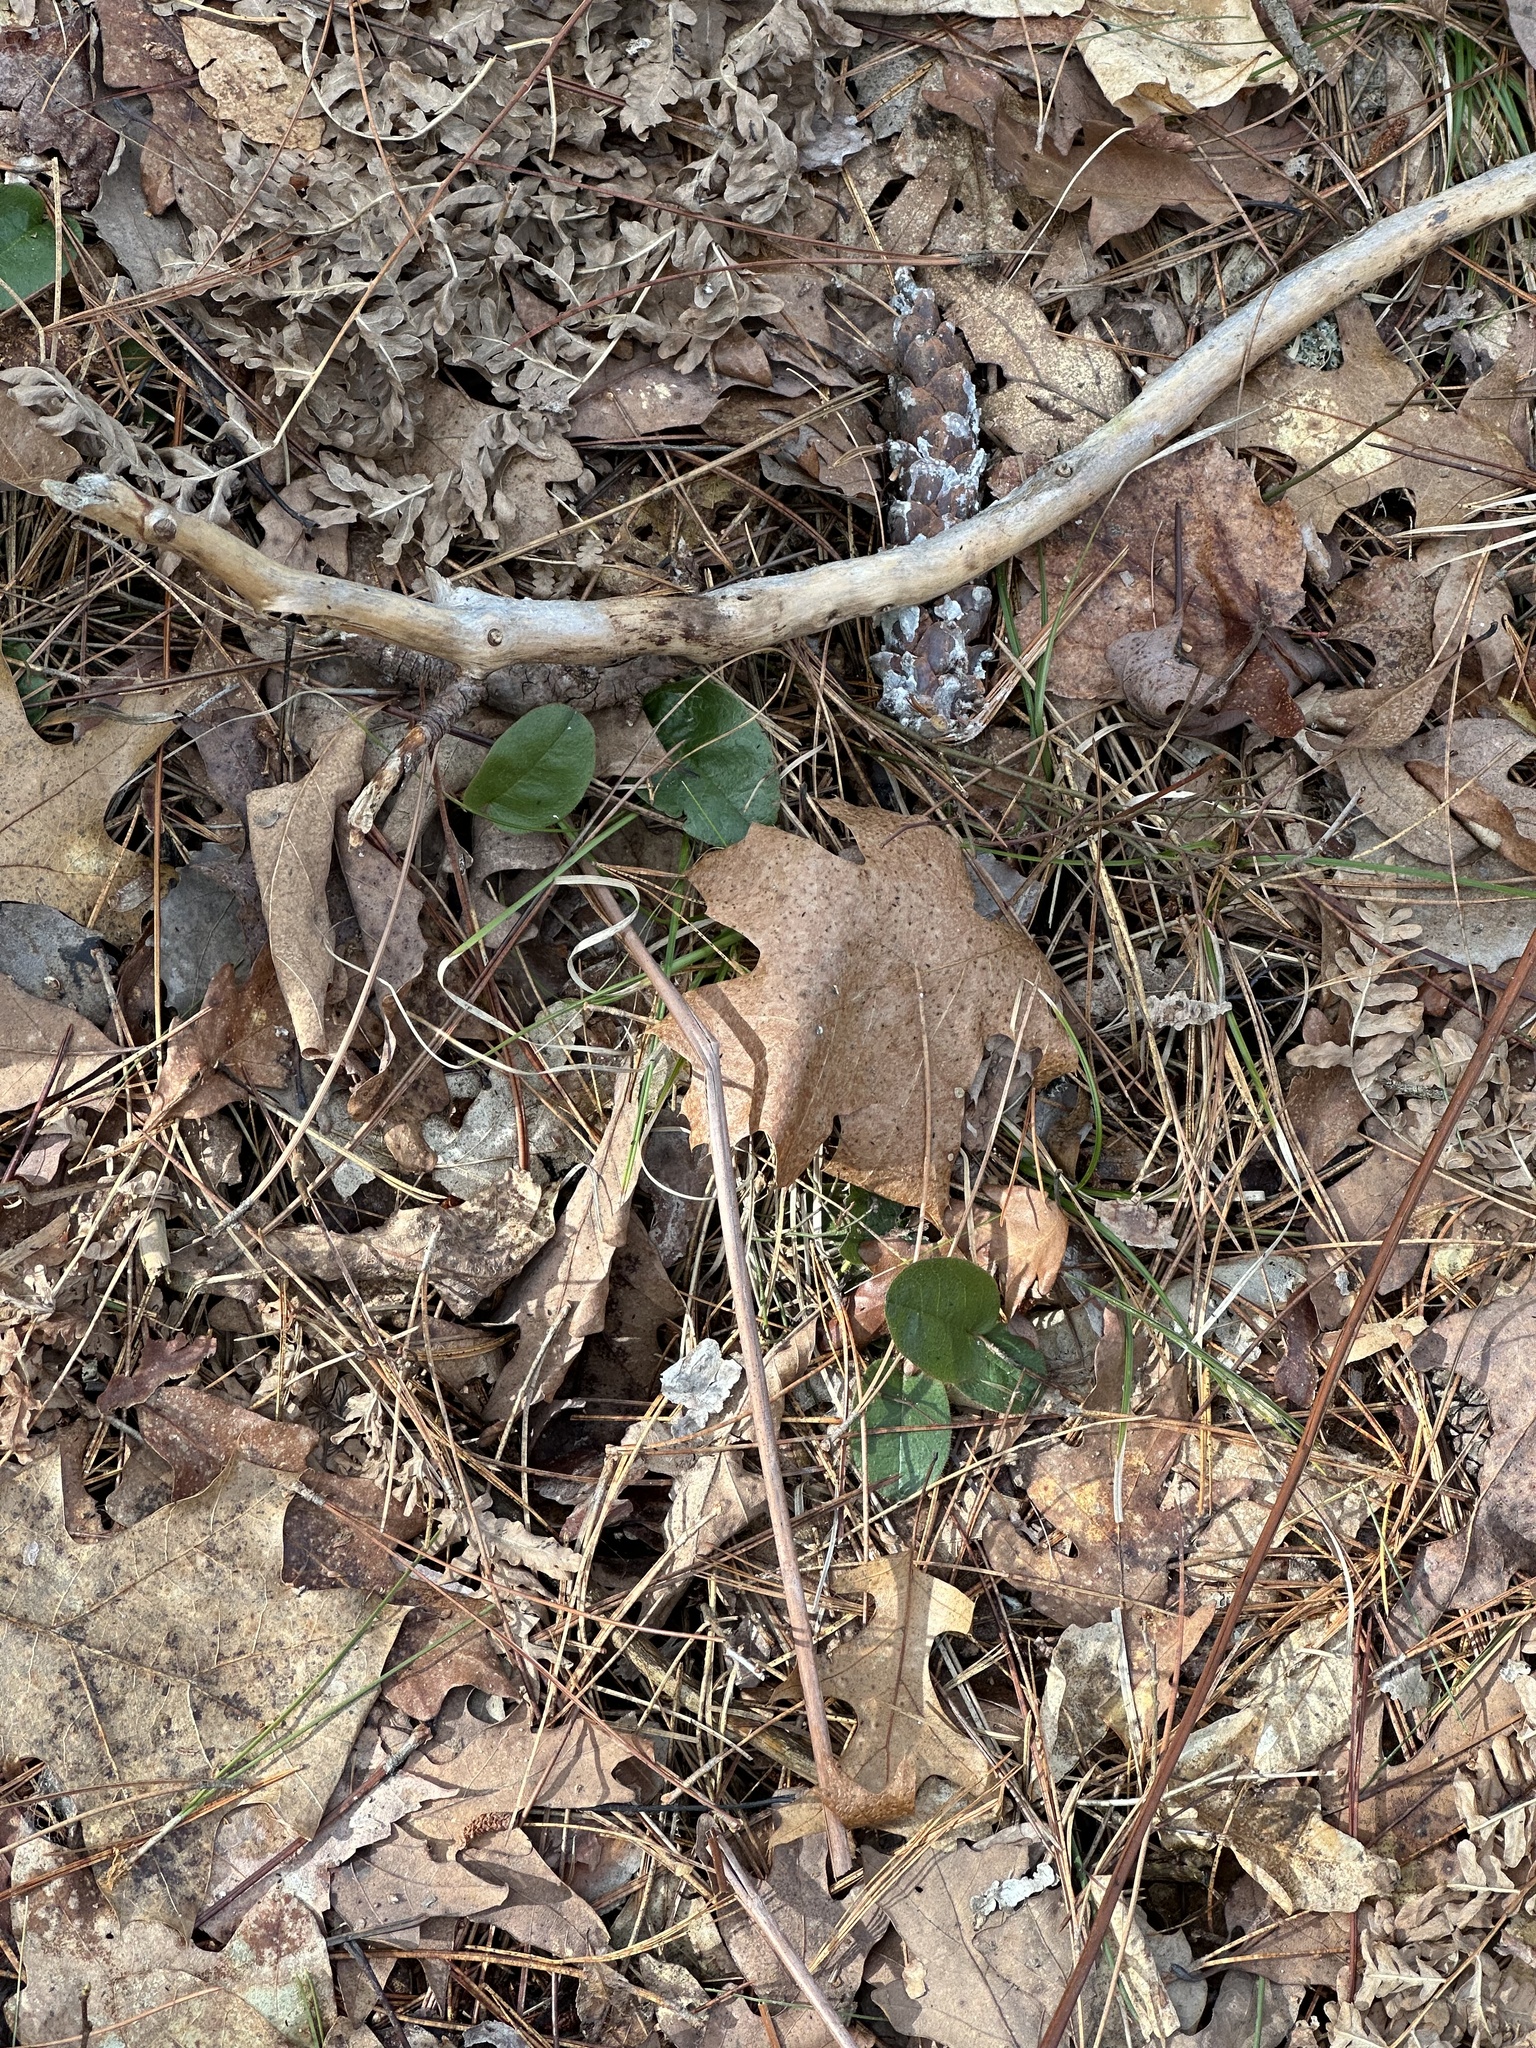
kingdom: Plantae
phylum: Tracheophyta
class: Magnoliopsida
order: Ericales
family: Ericaceae
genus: Epigaea
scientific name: Epigaea repens
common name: Gravelroot
